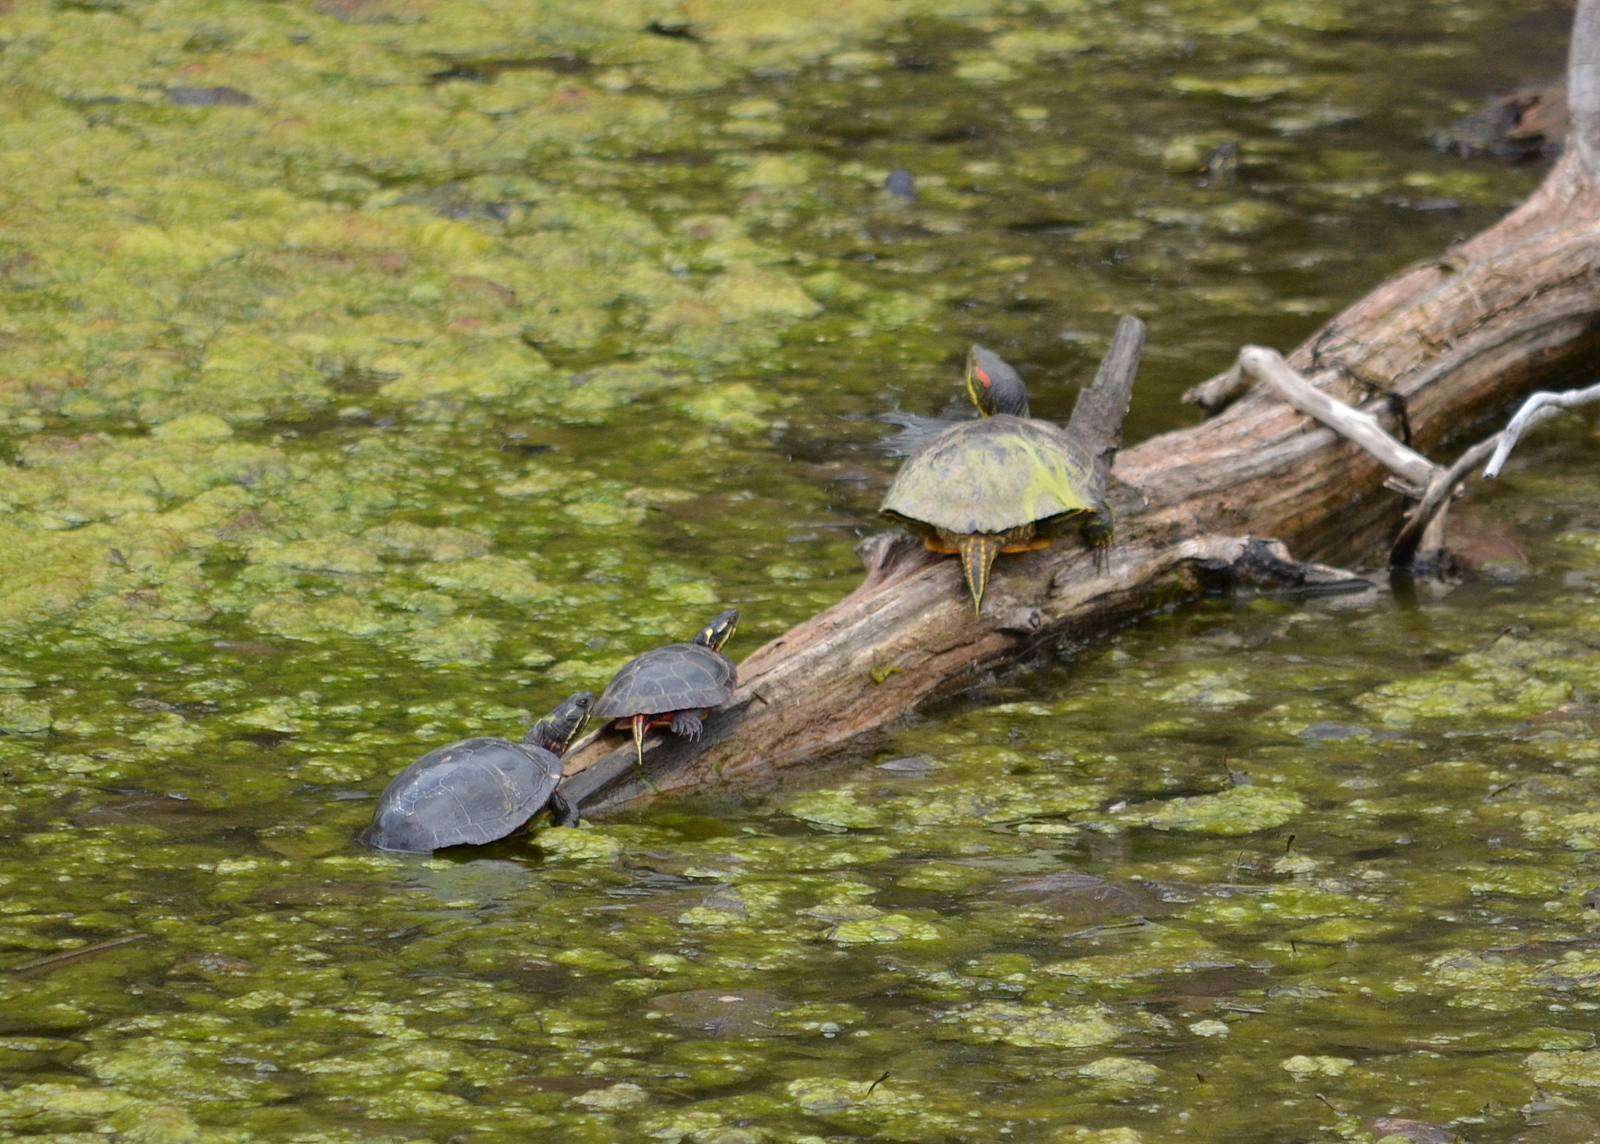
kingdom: Animalia
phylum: Chordata
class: Testudines
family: Emydidae
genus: Trachemys
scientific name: Trachemys scripta
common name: Slider
